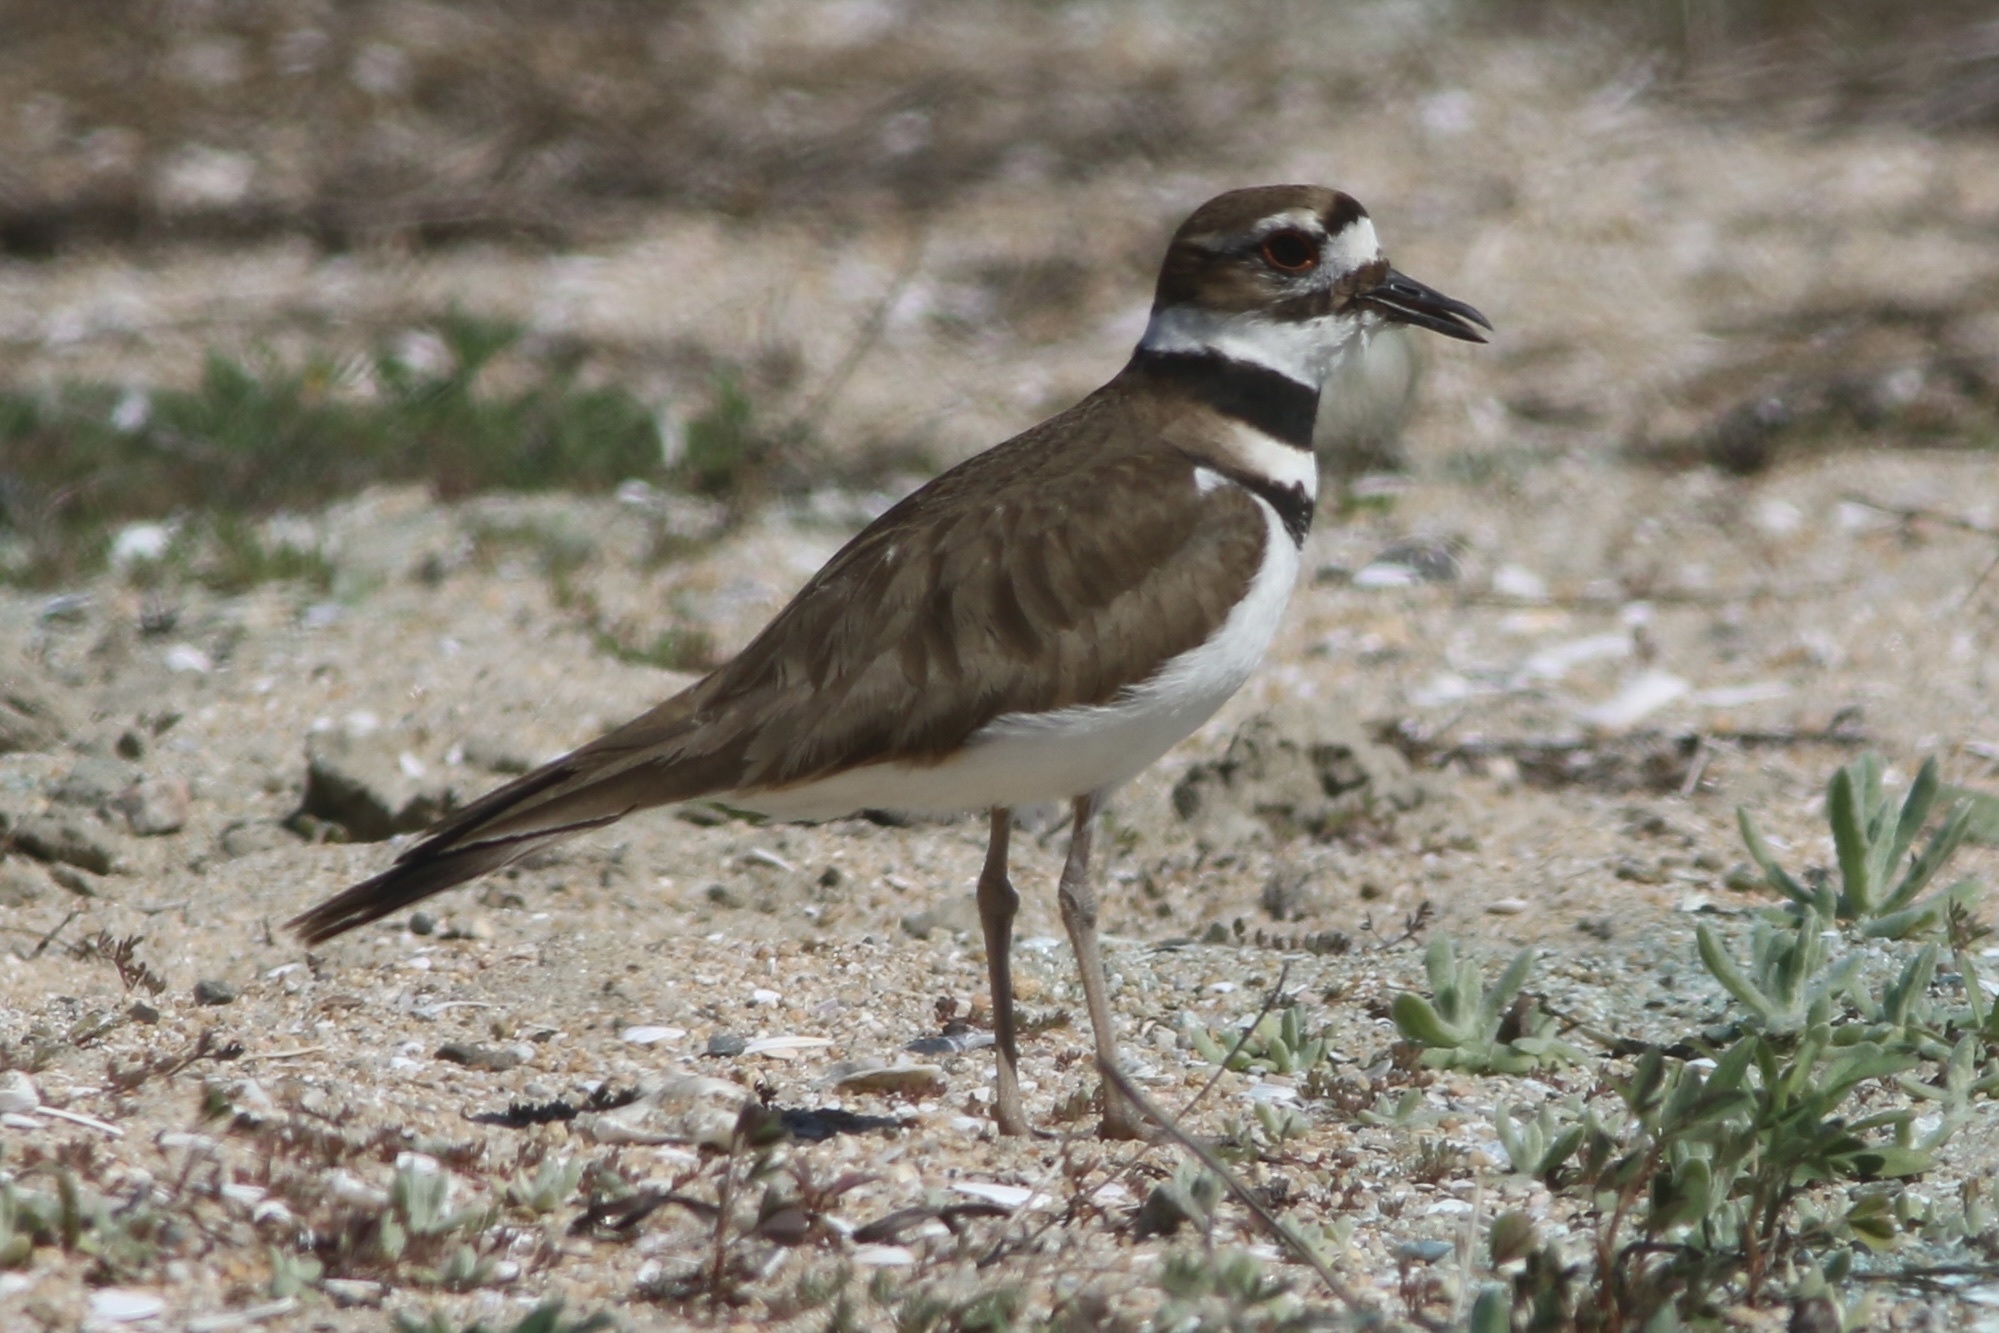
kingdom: Animalia
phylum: Chordata
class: Aves
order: Charadriiformes
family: Charadriidae
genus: Charadrius
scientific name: Charadrius vociferus
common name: Killdeer
